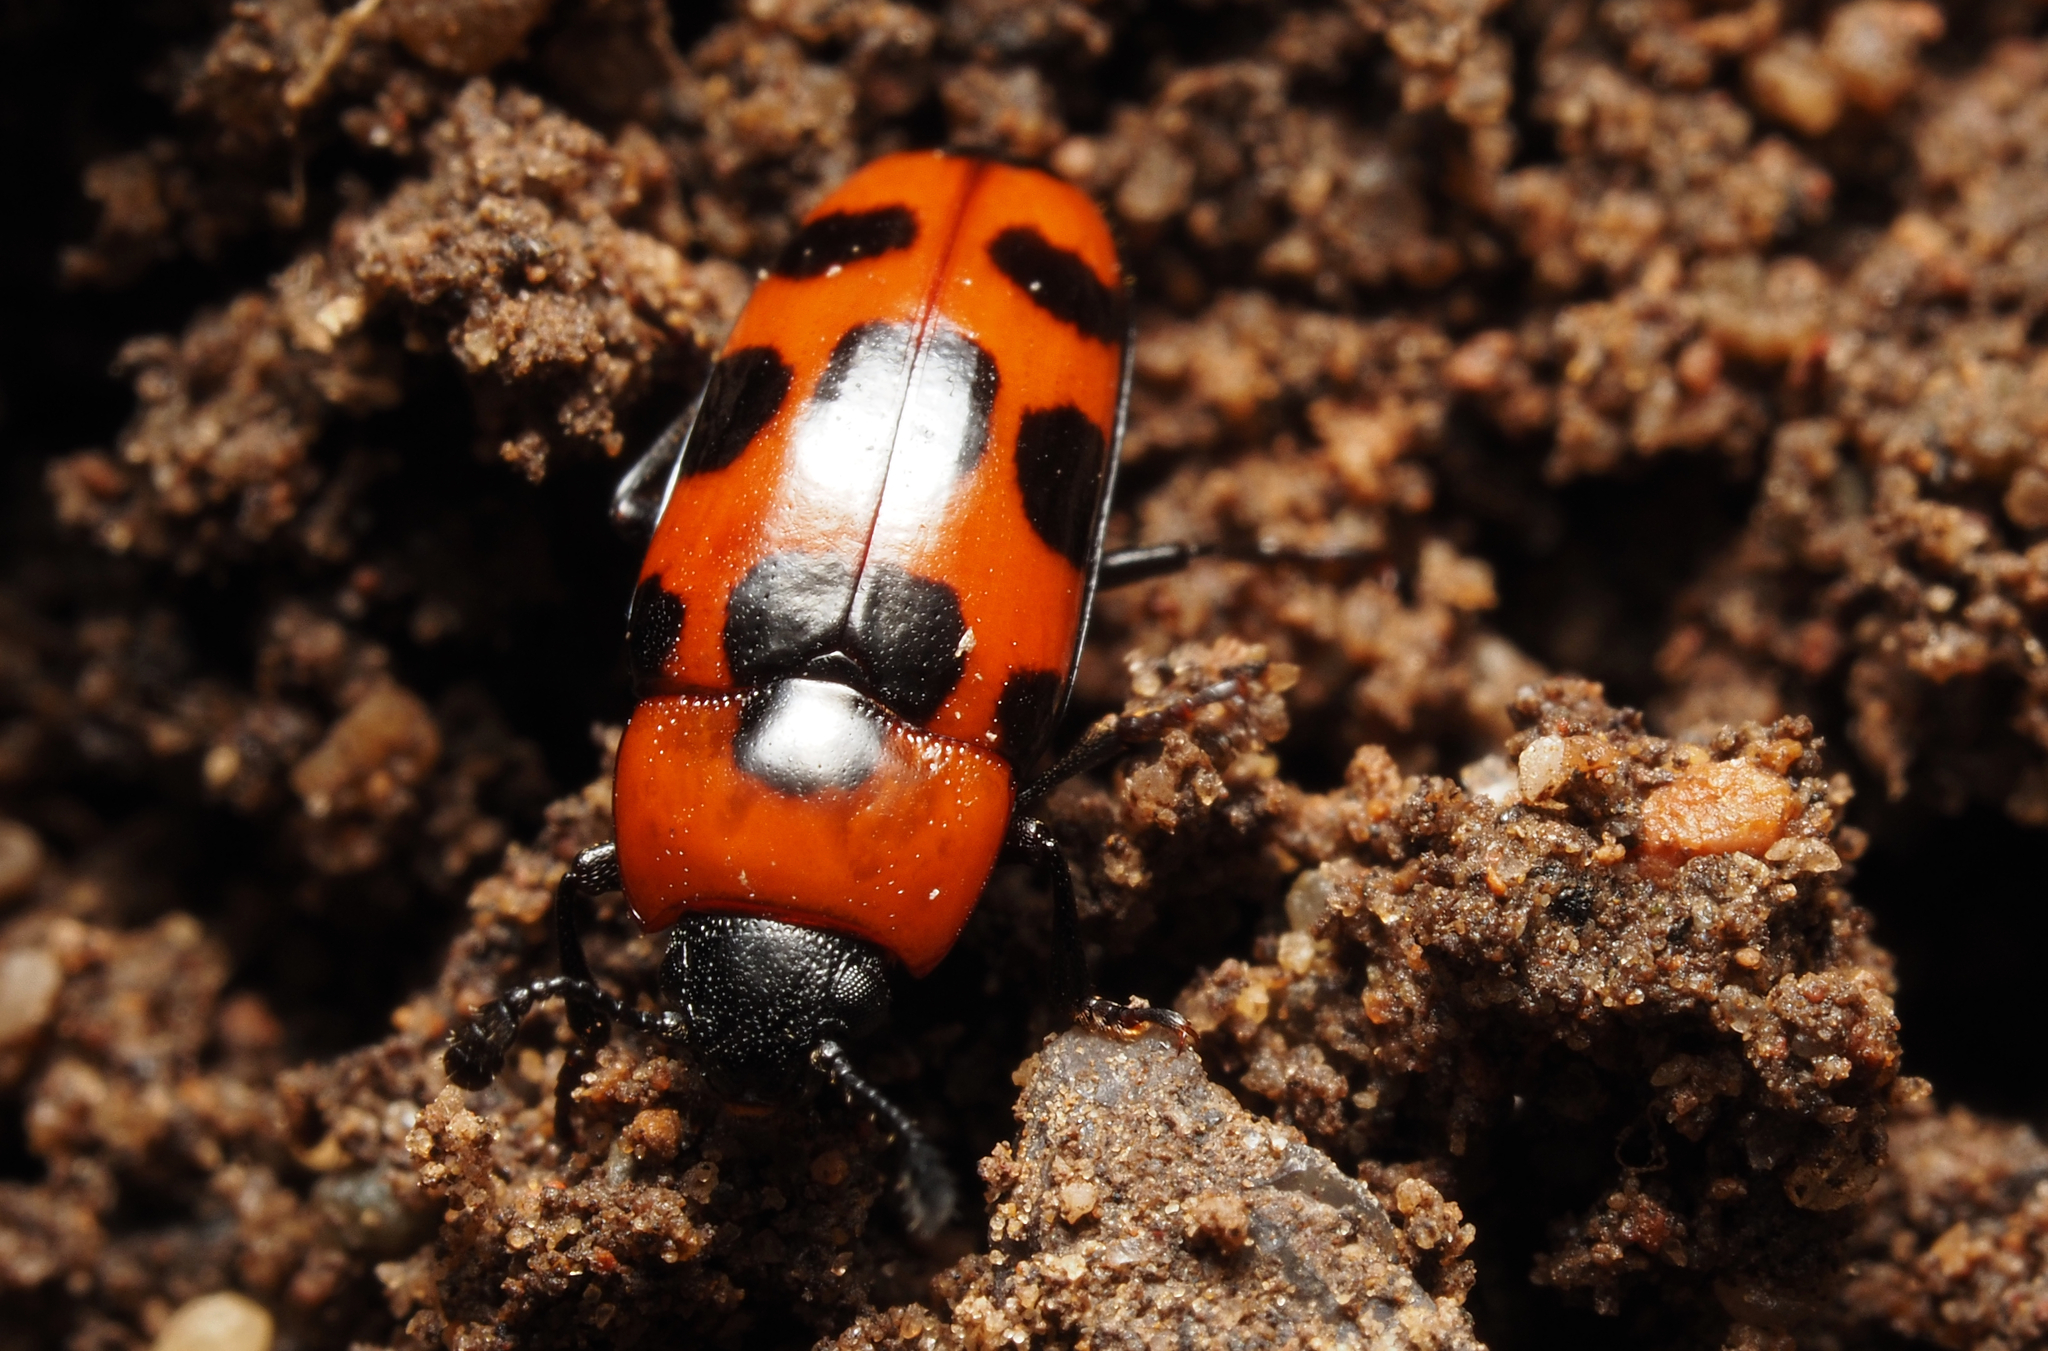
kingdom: Animalia
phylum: Arthropoda
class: Insecta
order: Coleoptera
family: Erotylidae
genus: Episcaphula
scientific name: Episcaphula australis
